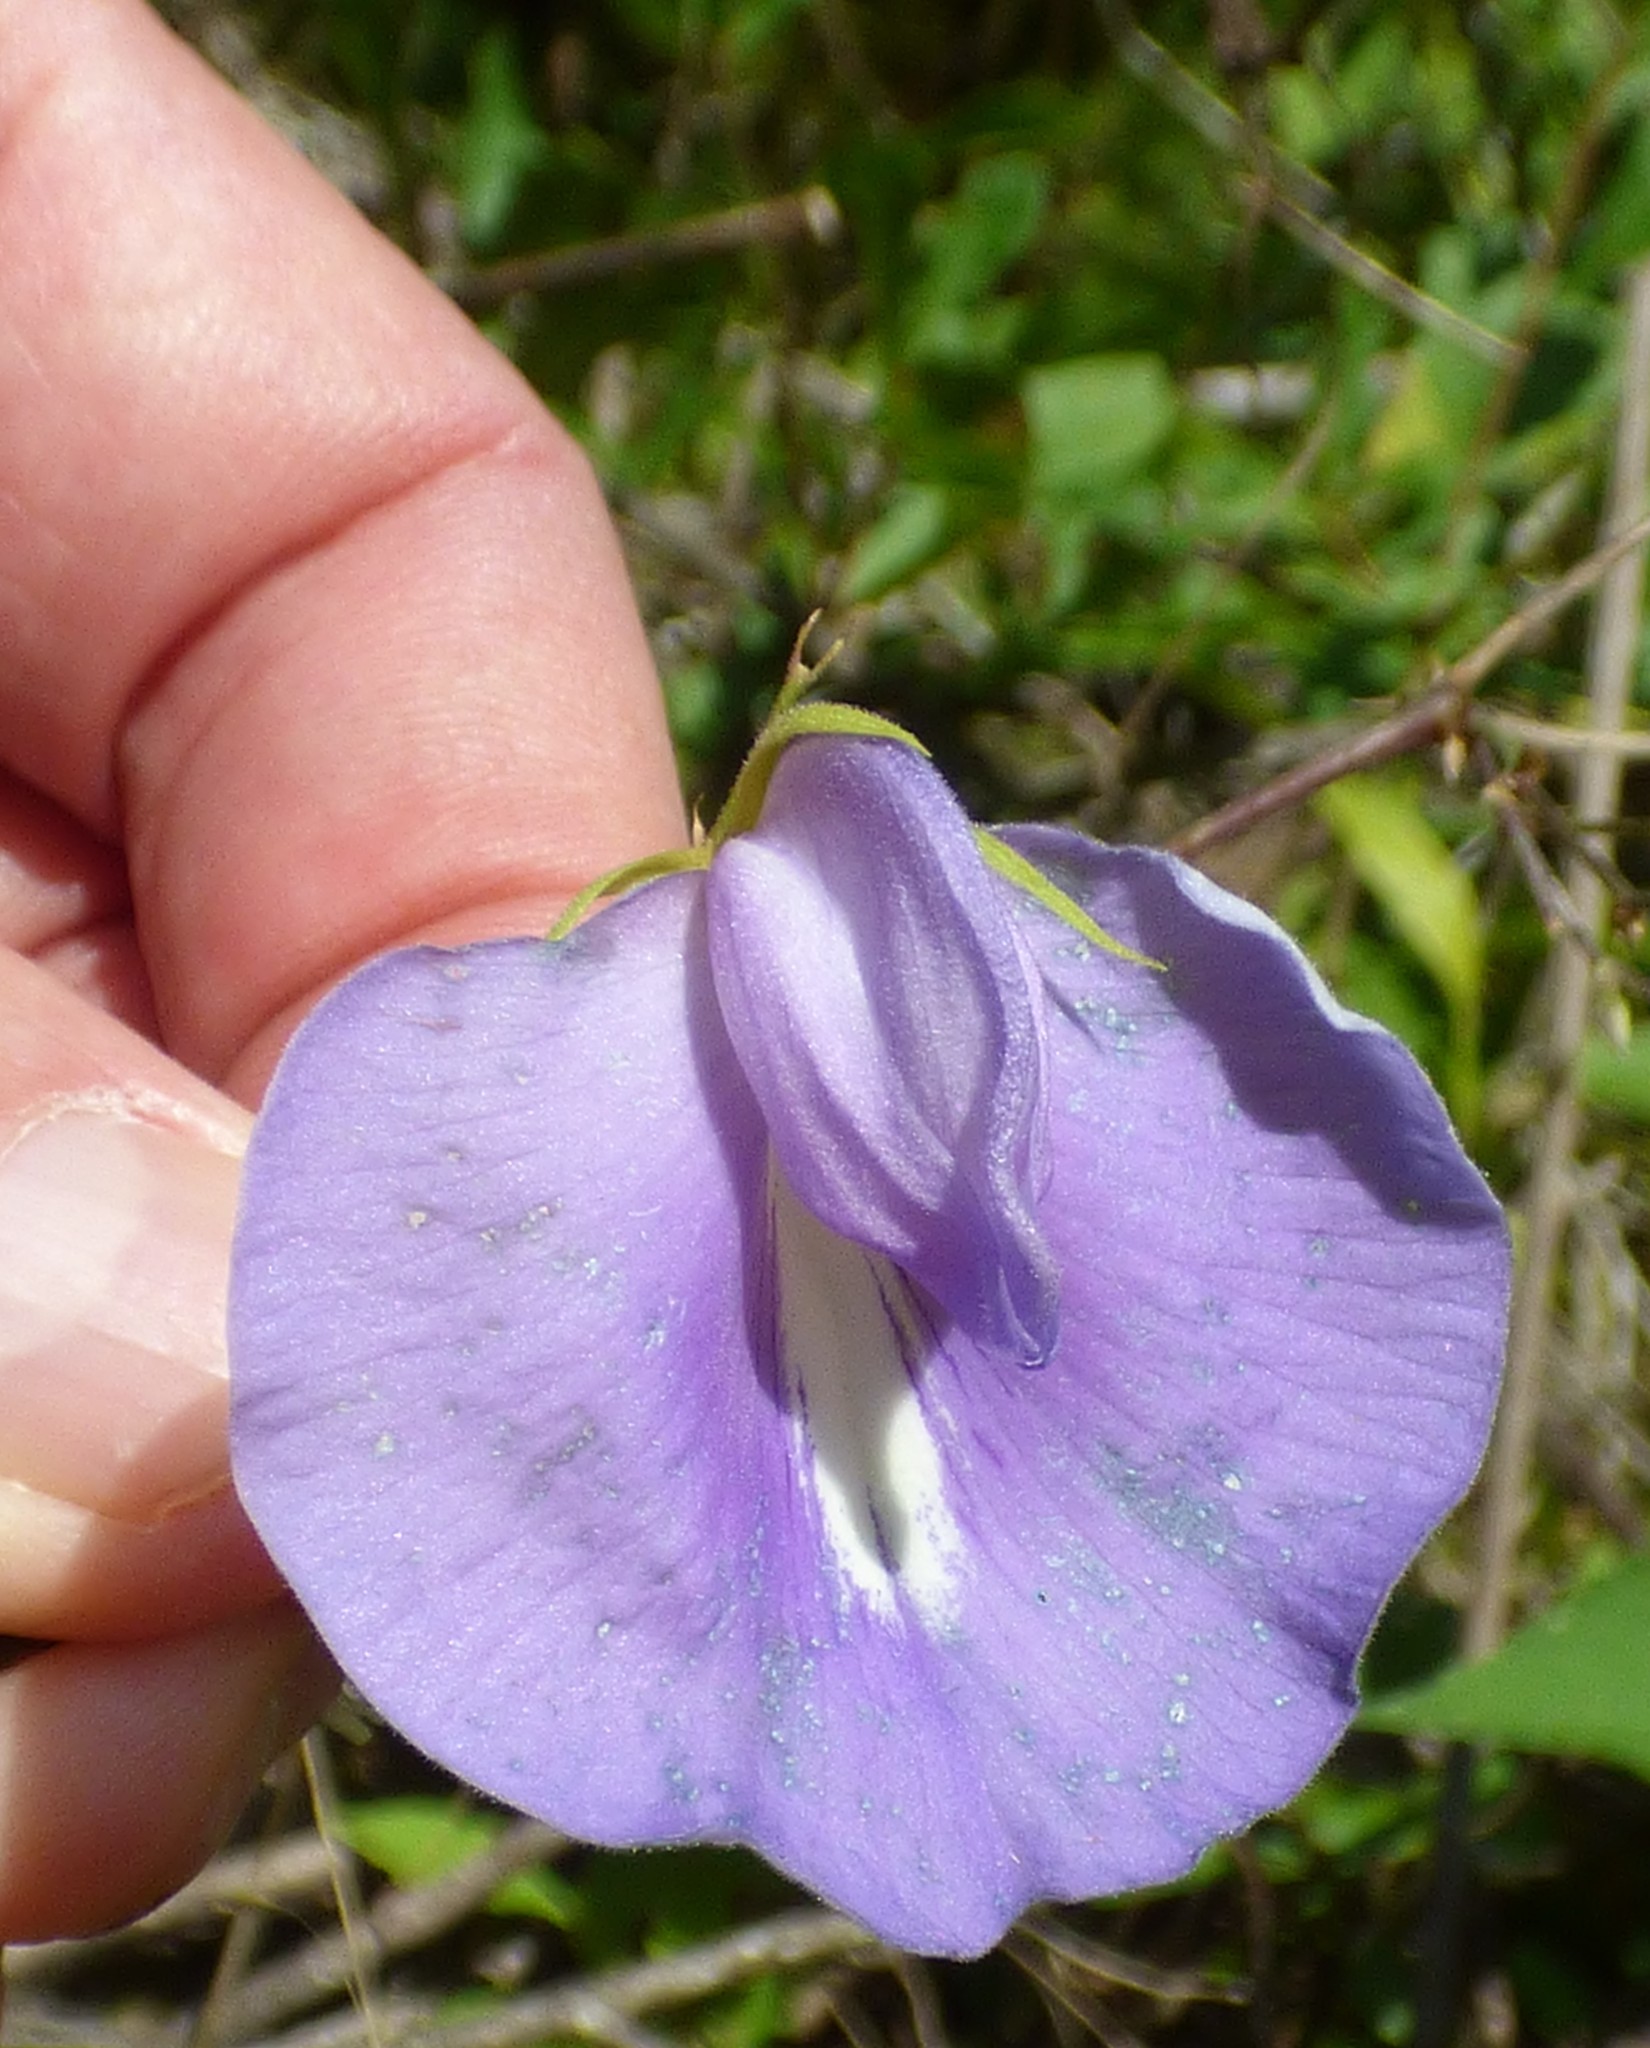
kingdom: Plantae
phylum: Tracheophyta
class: Magnoliopsida
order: Fabales
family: Fabaceae
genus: Centrosema
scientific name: Centrosema virginianum
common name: Butterfly-pea
